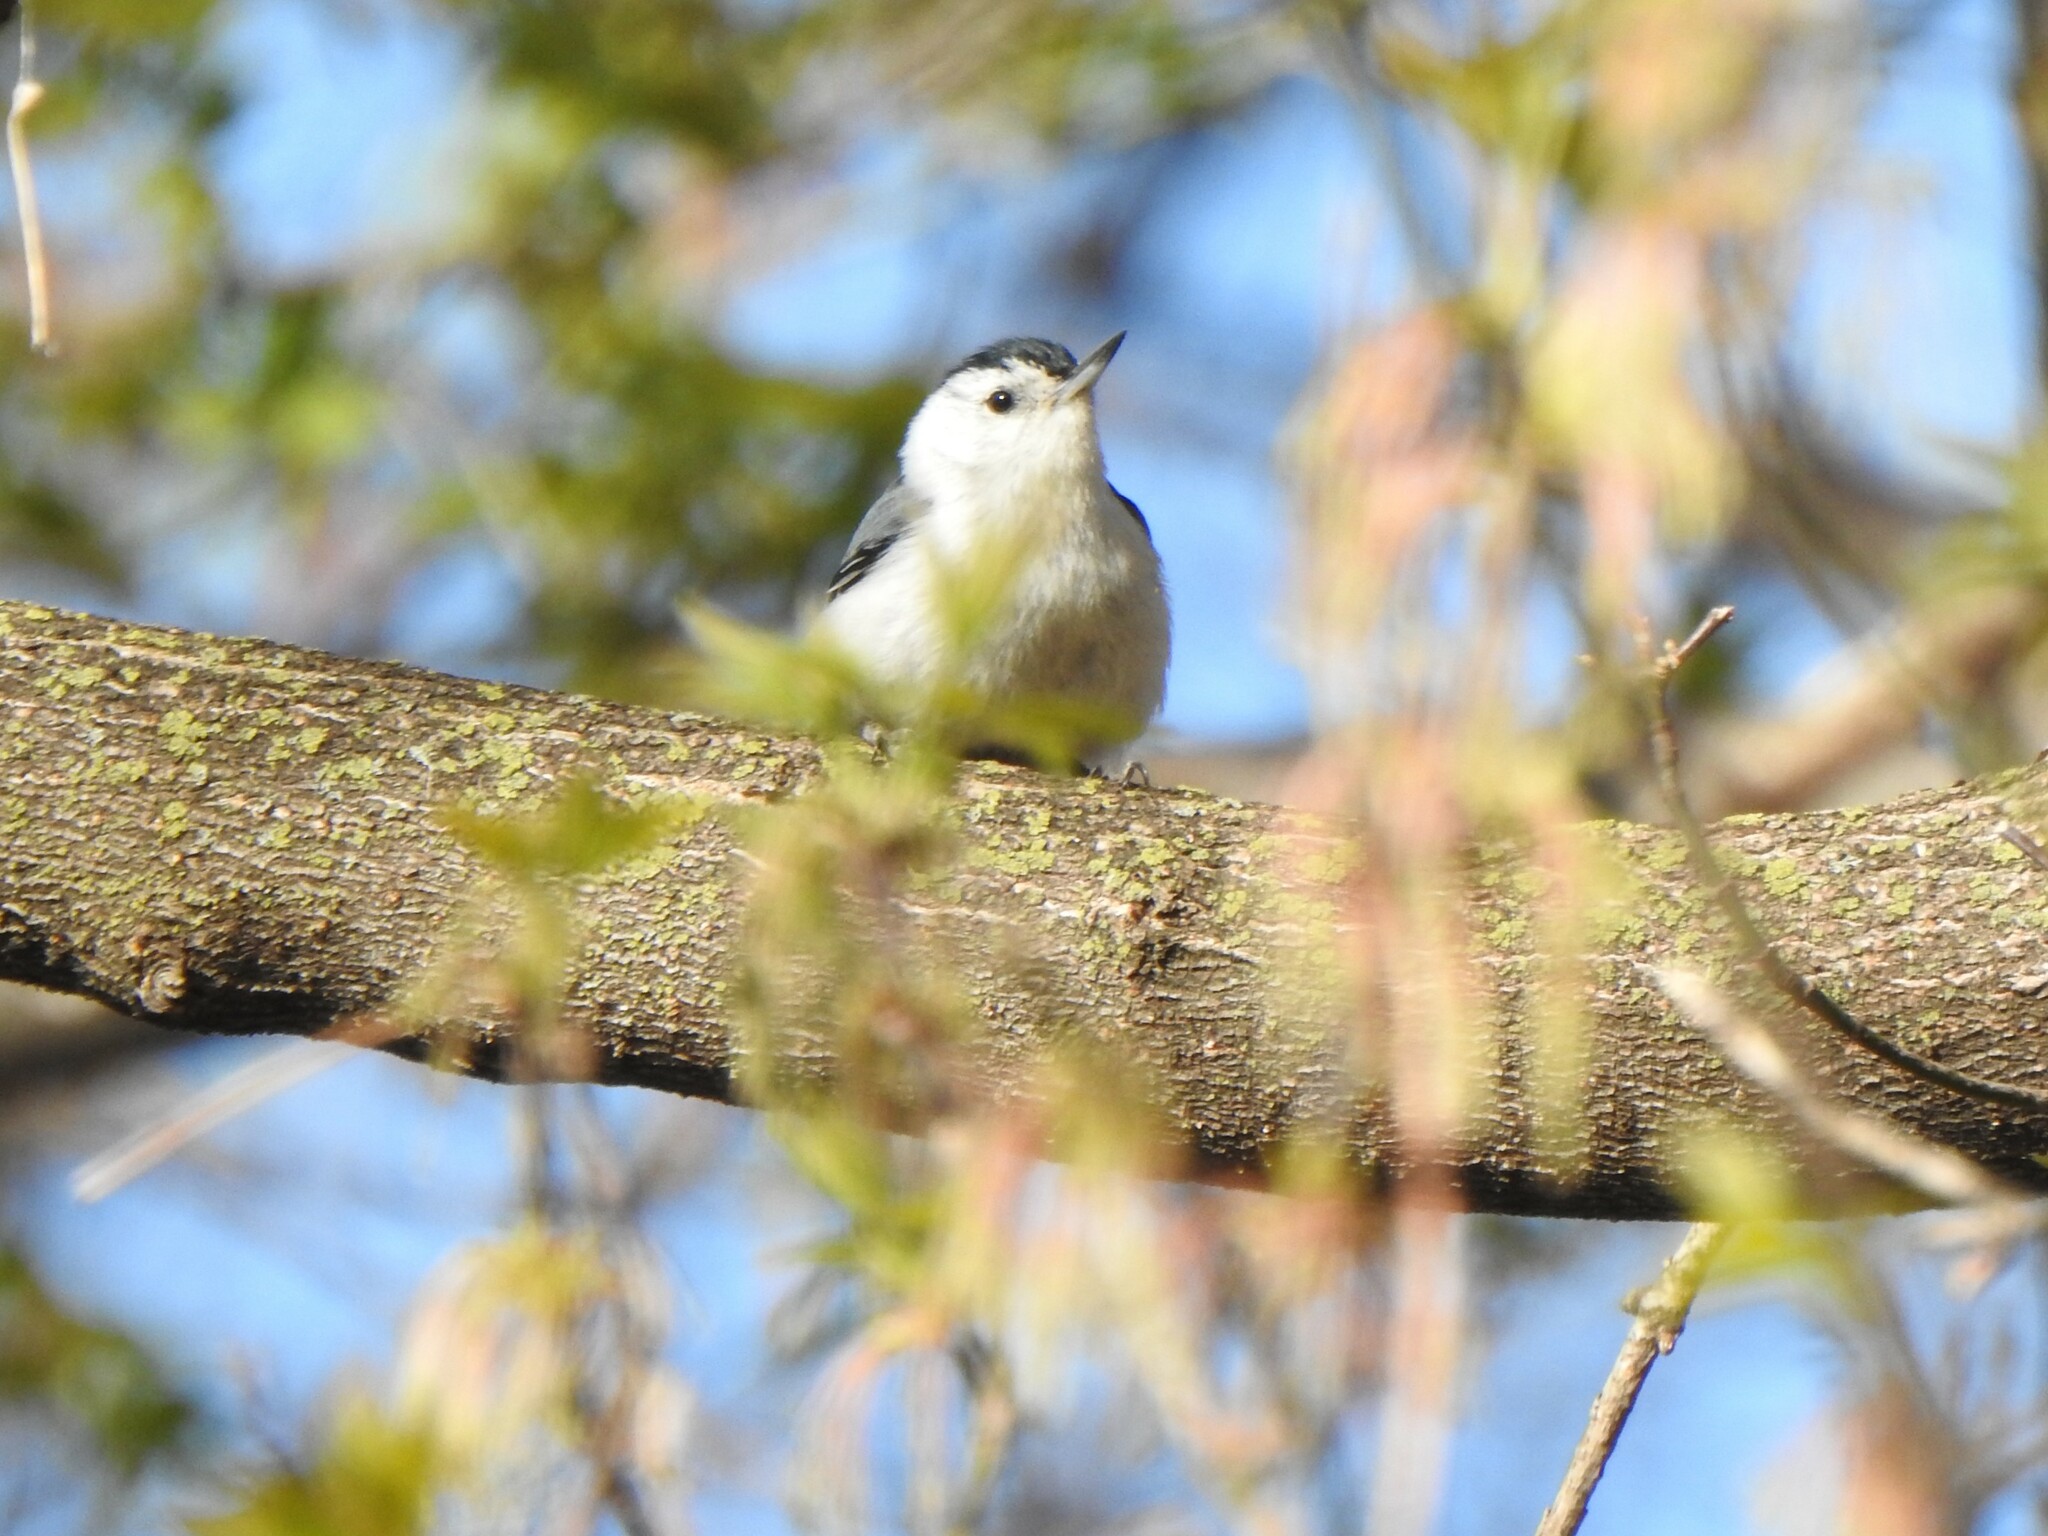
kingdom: Animalia
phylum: Chordata
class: Aves
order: Passeriformes
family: Sittidae
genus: Sitta
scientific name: Sitta carolinensis
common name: White-breasted nuthatch
